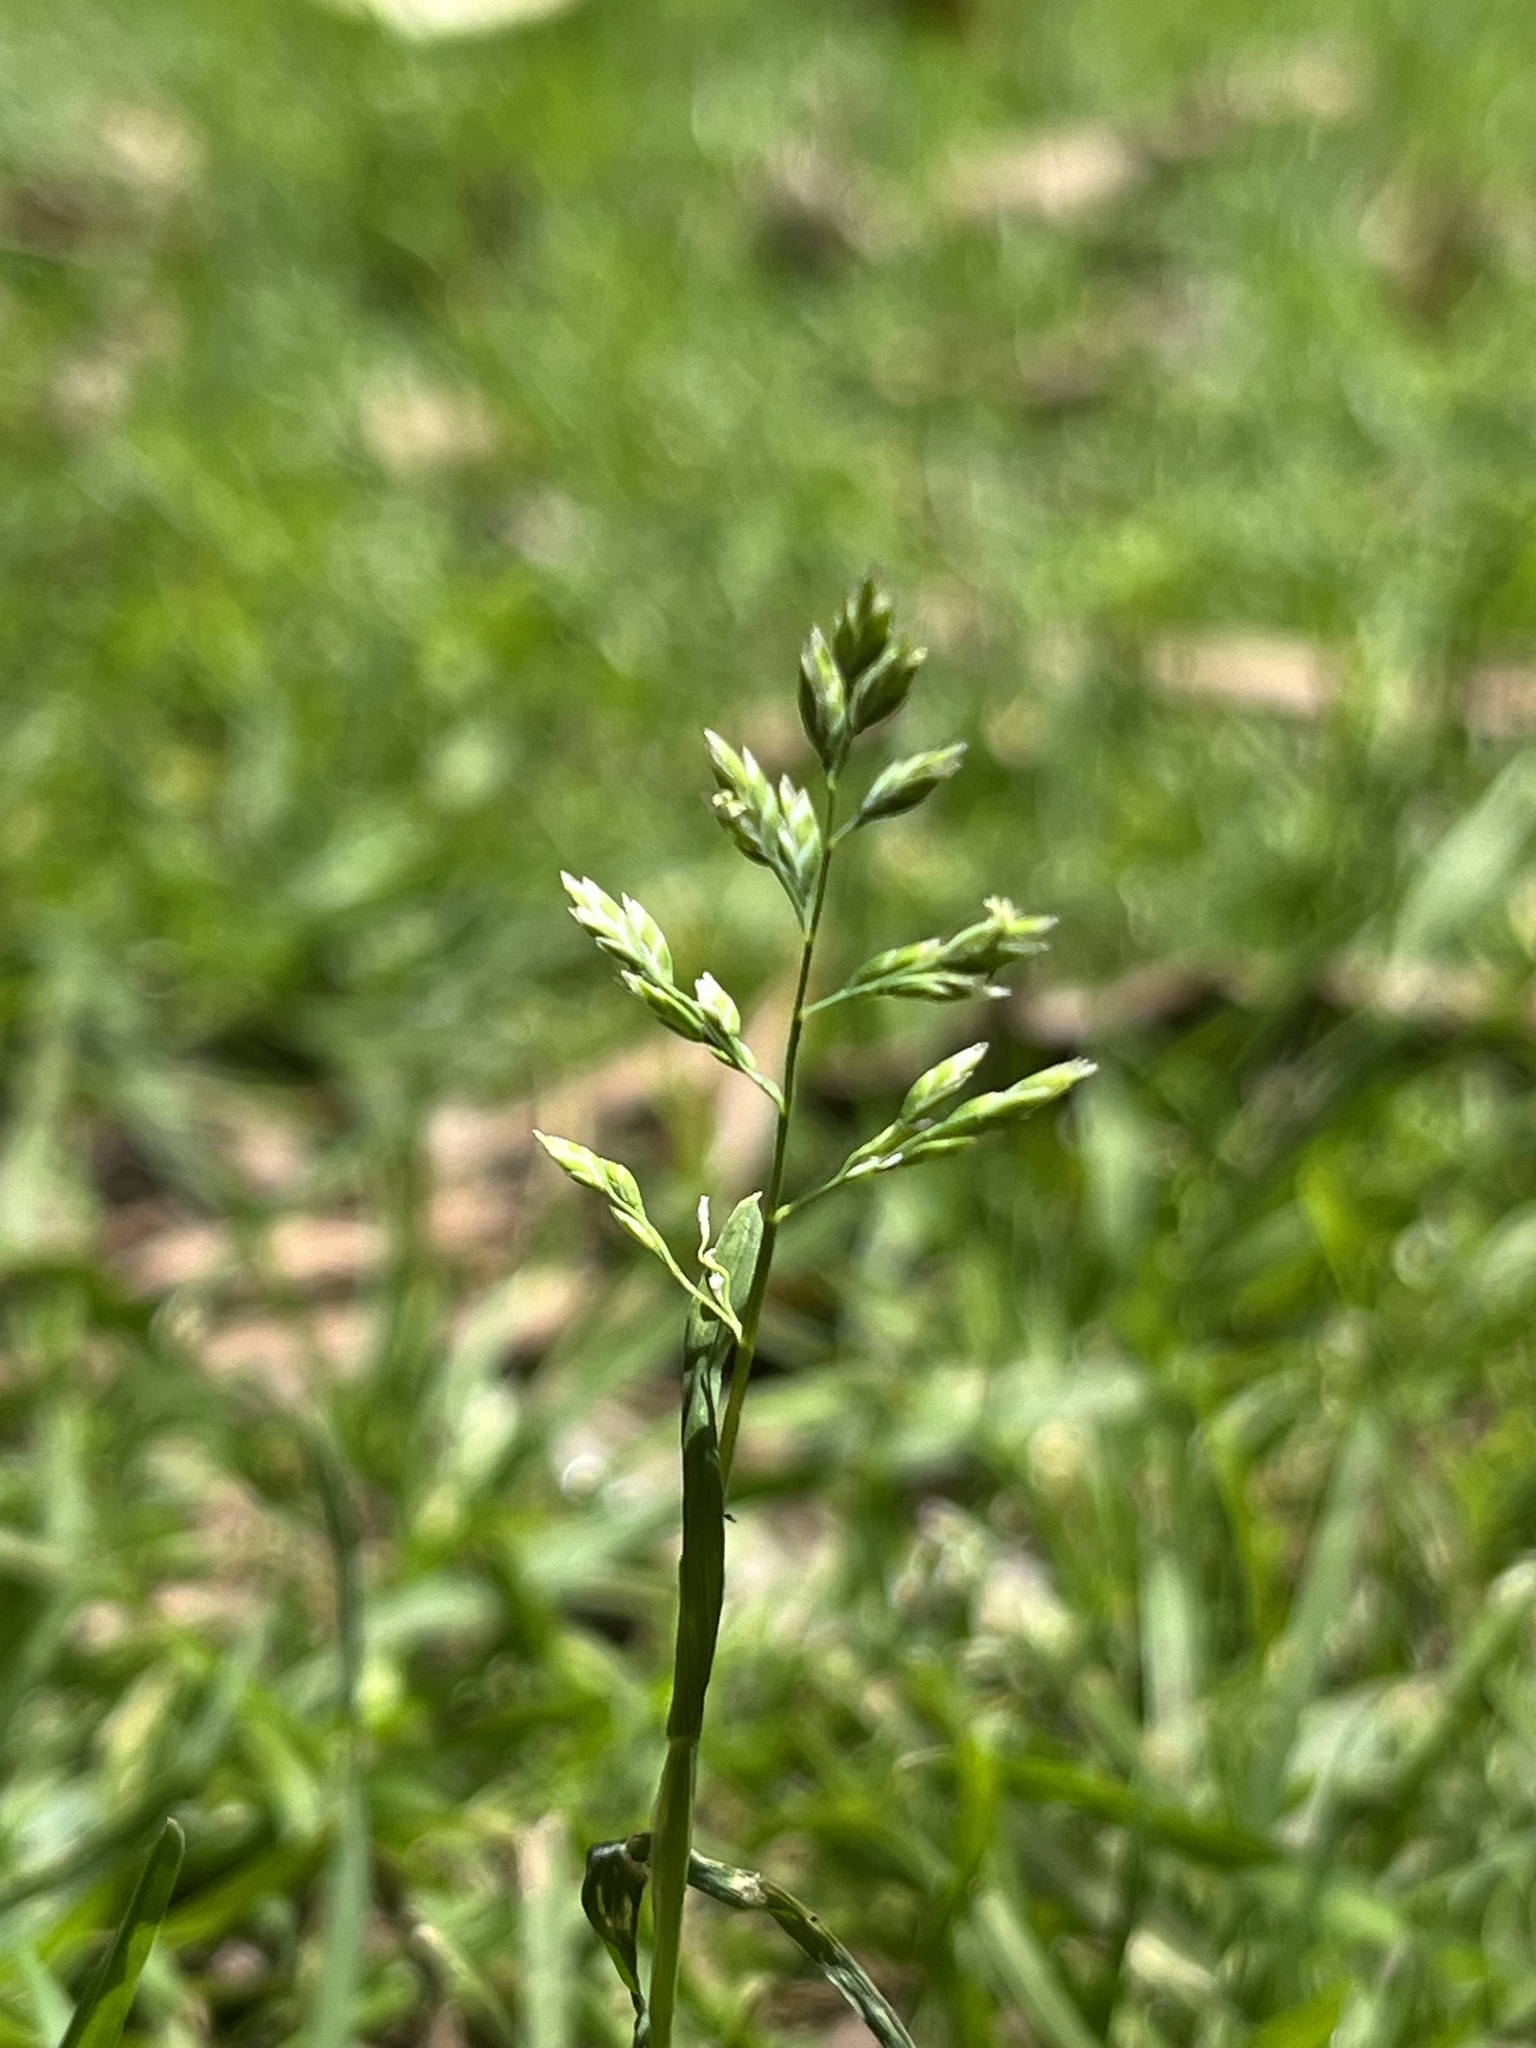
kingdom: Plantae
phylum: Tracheophyta
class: Liliopsida
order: Poales
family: Poaceae
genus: Poa
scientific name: Poa annua
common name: Annual bluegrass
